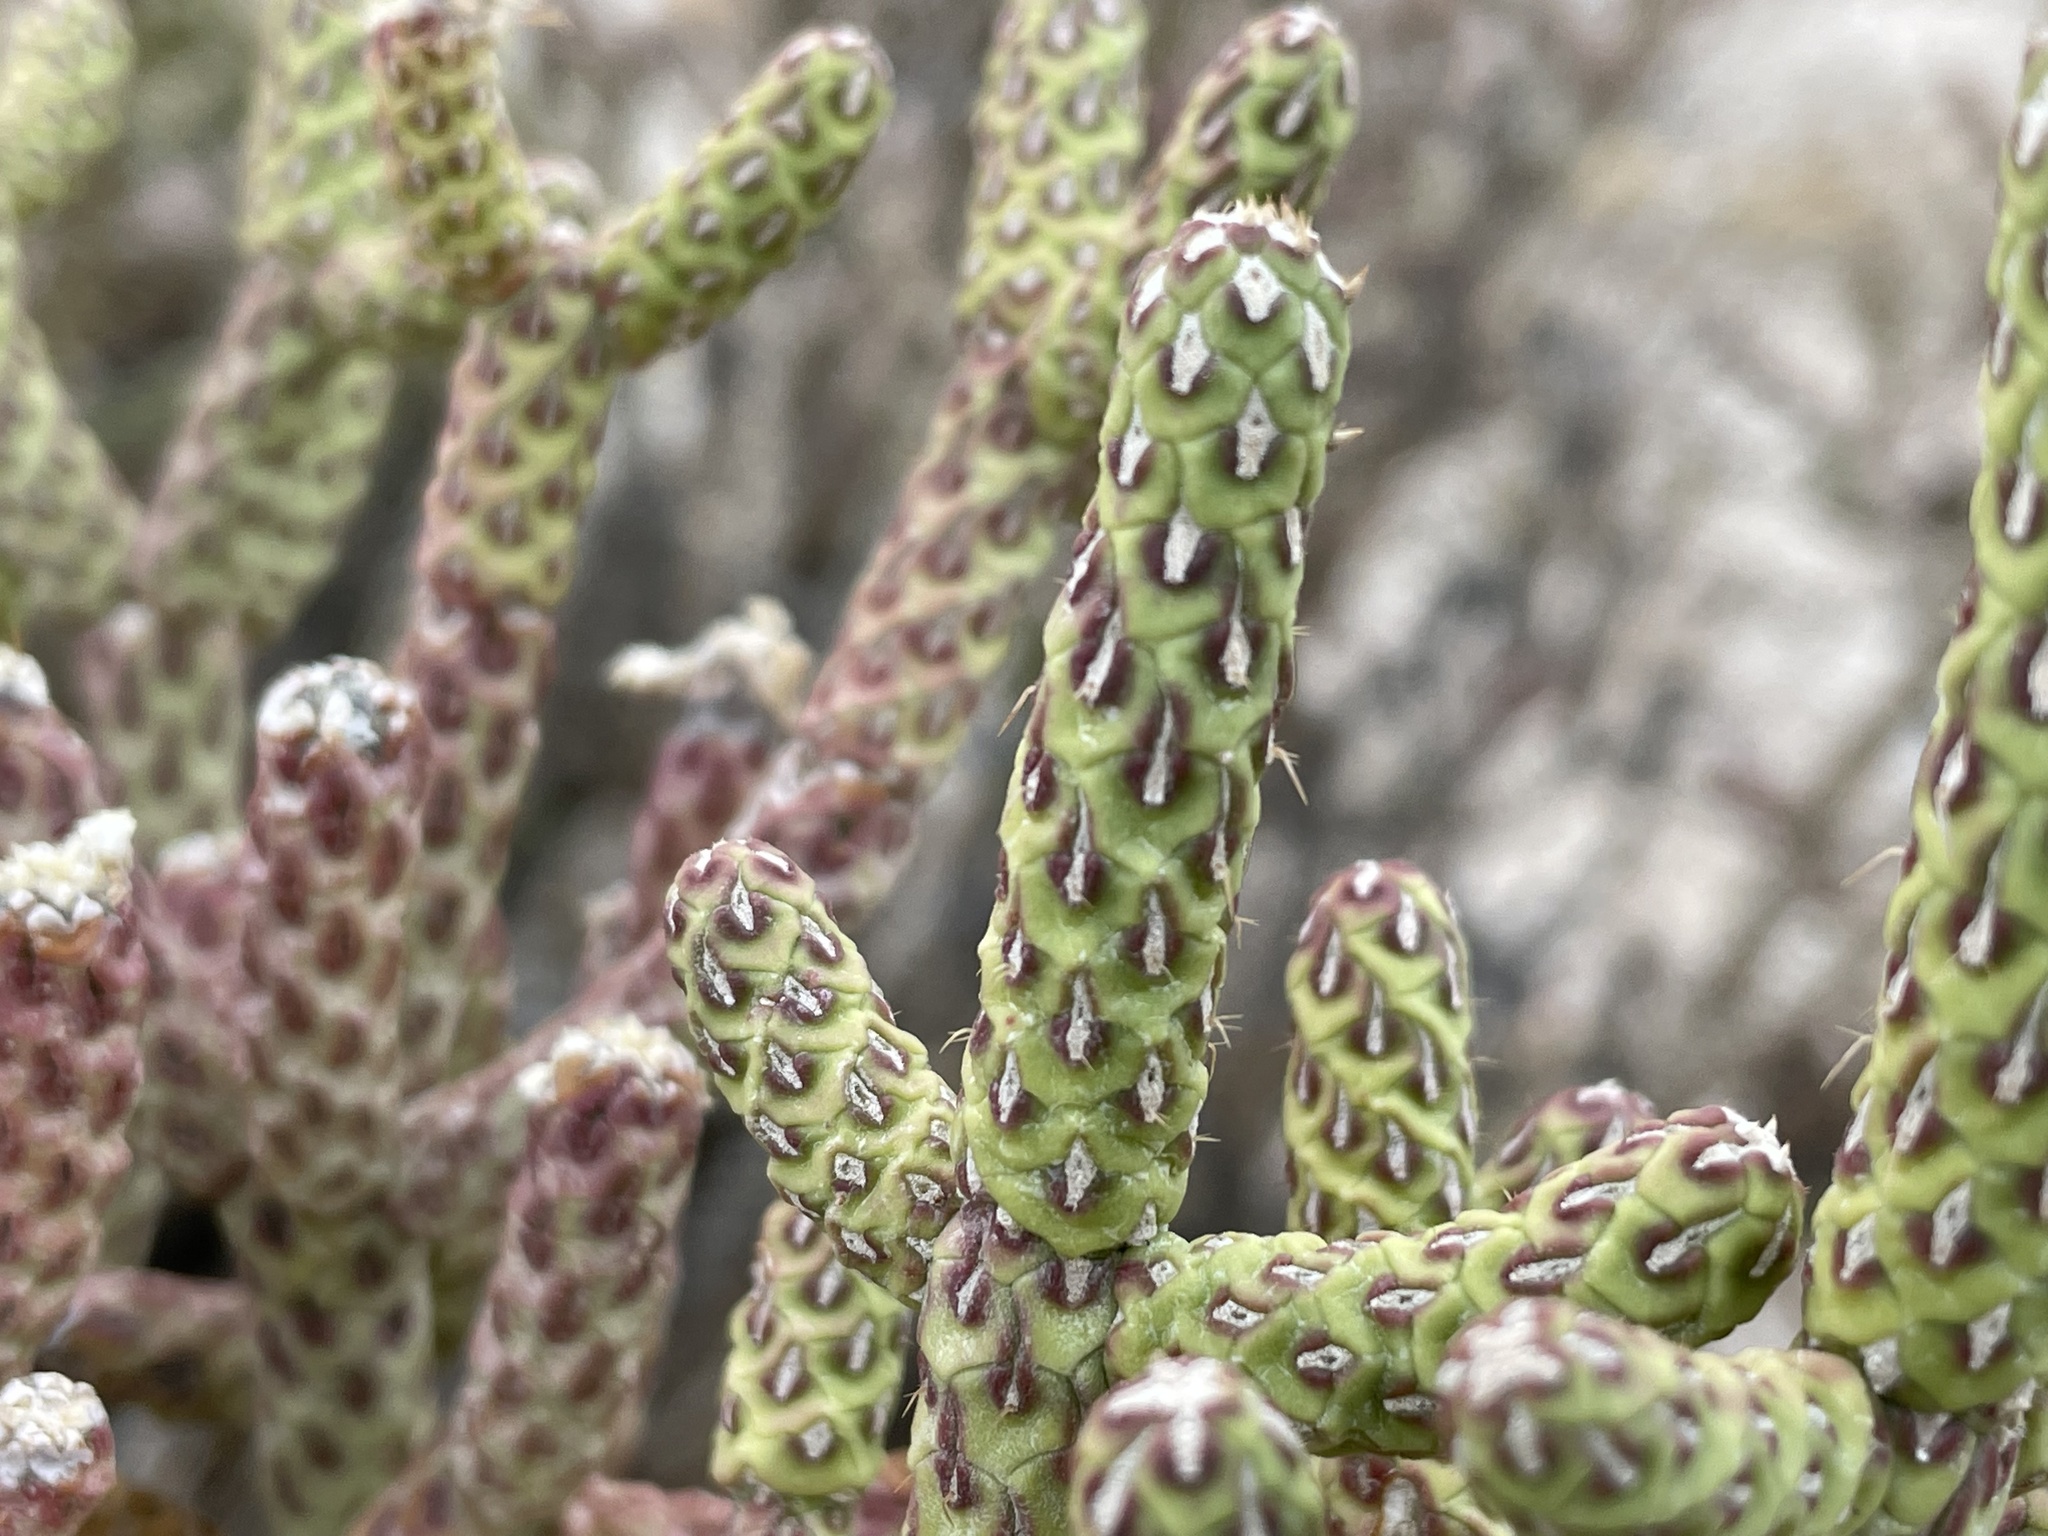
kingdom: Plantae
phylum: Tracheophyta
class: Magnoliopsida
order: Caryophyllales
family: Cactaceae
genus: Cylindropuntia
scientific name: Cylindropuntia ramosissima
